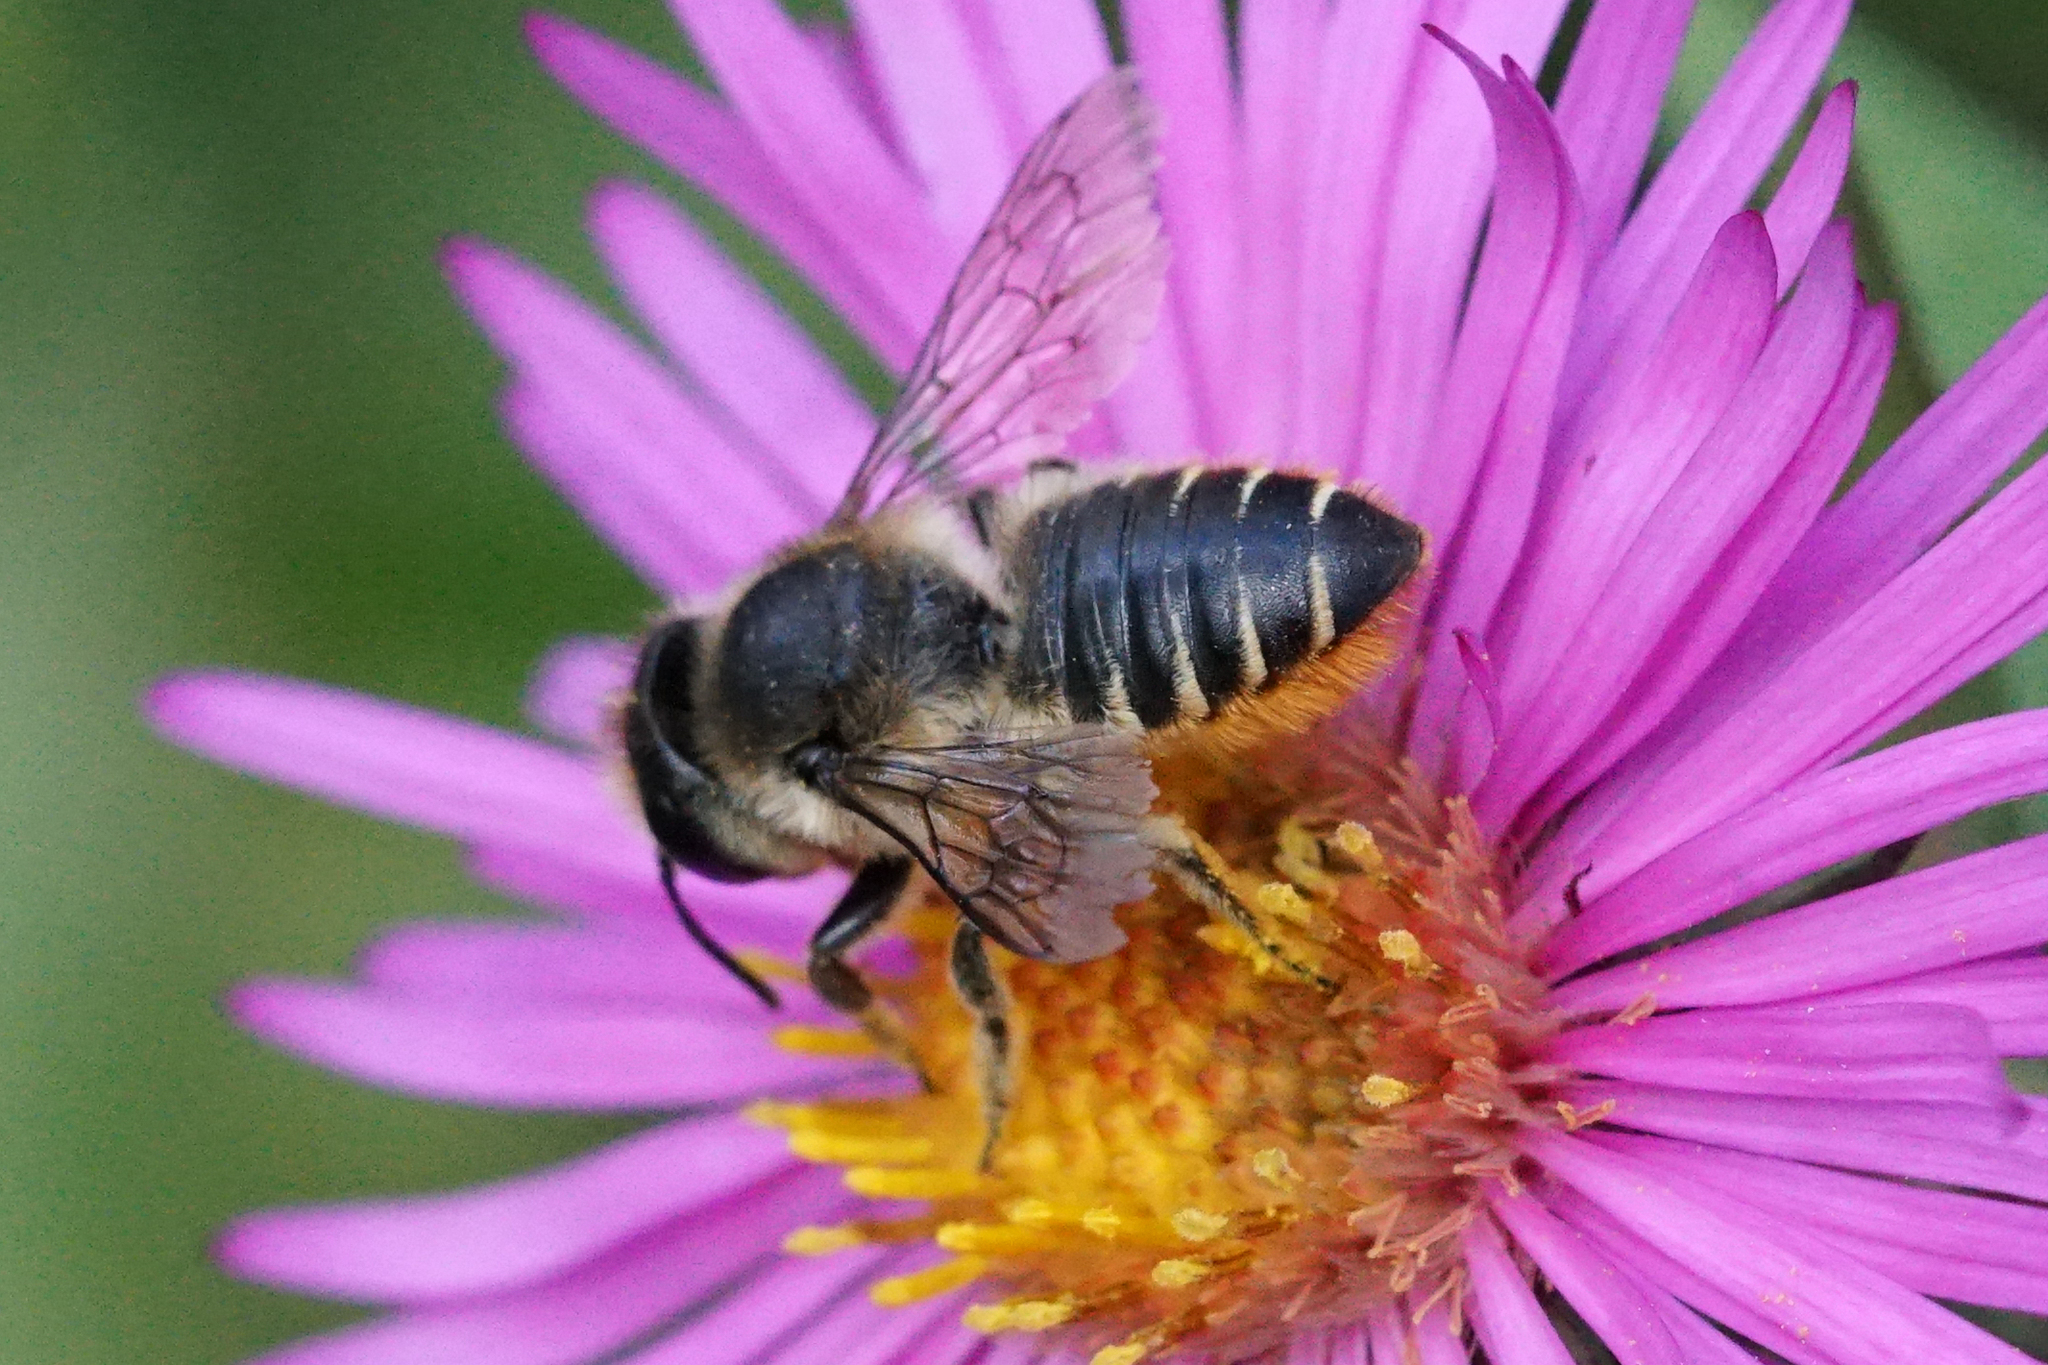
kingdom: Animalia
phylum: Arthropoda
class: Insecta
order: Hymenoptera
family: Megachilidae
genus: Megachile
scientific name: Megachile centuncularis
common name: Patchwork leafcutter bee
